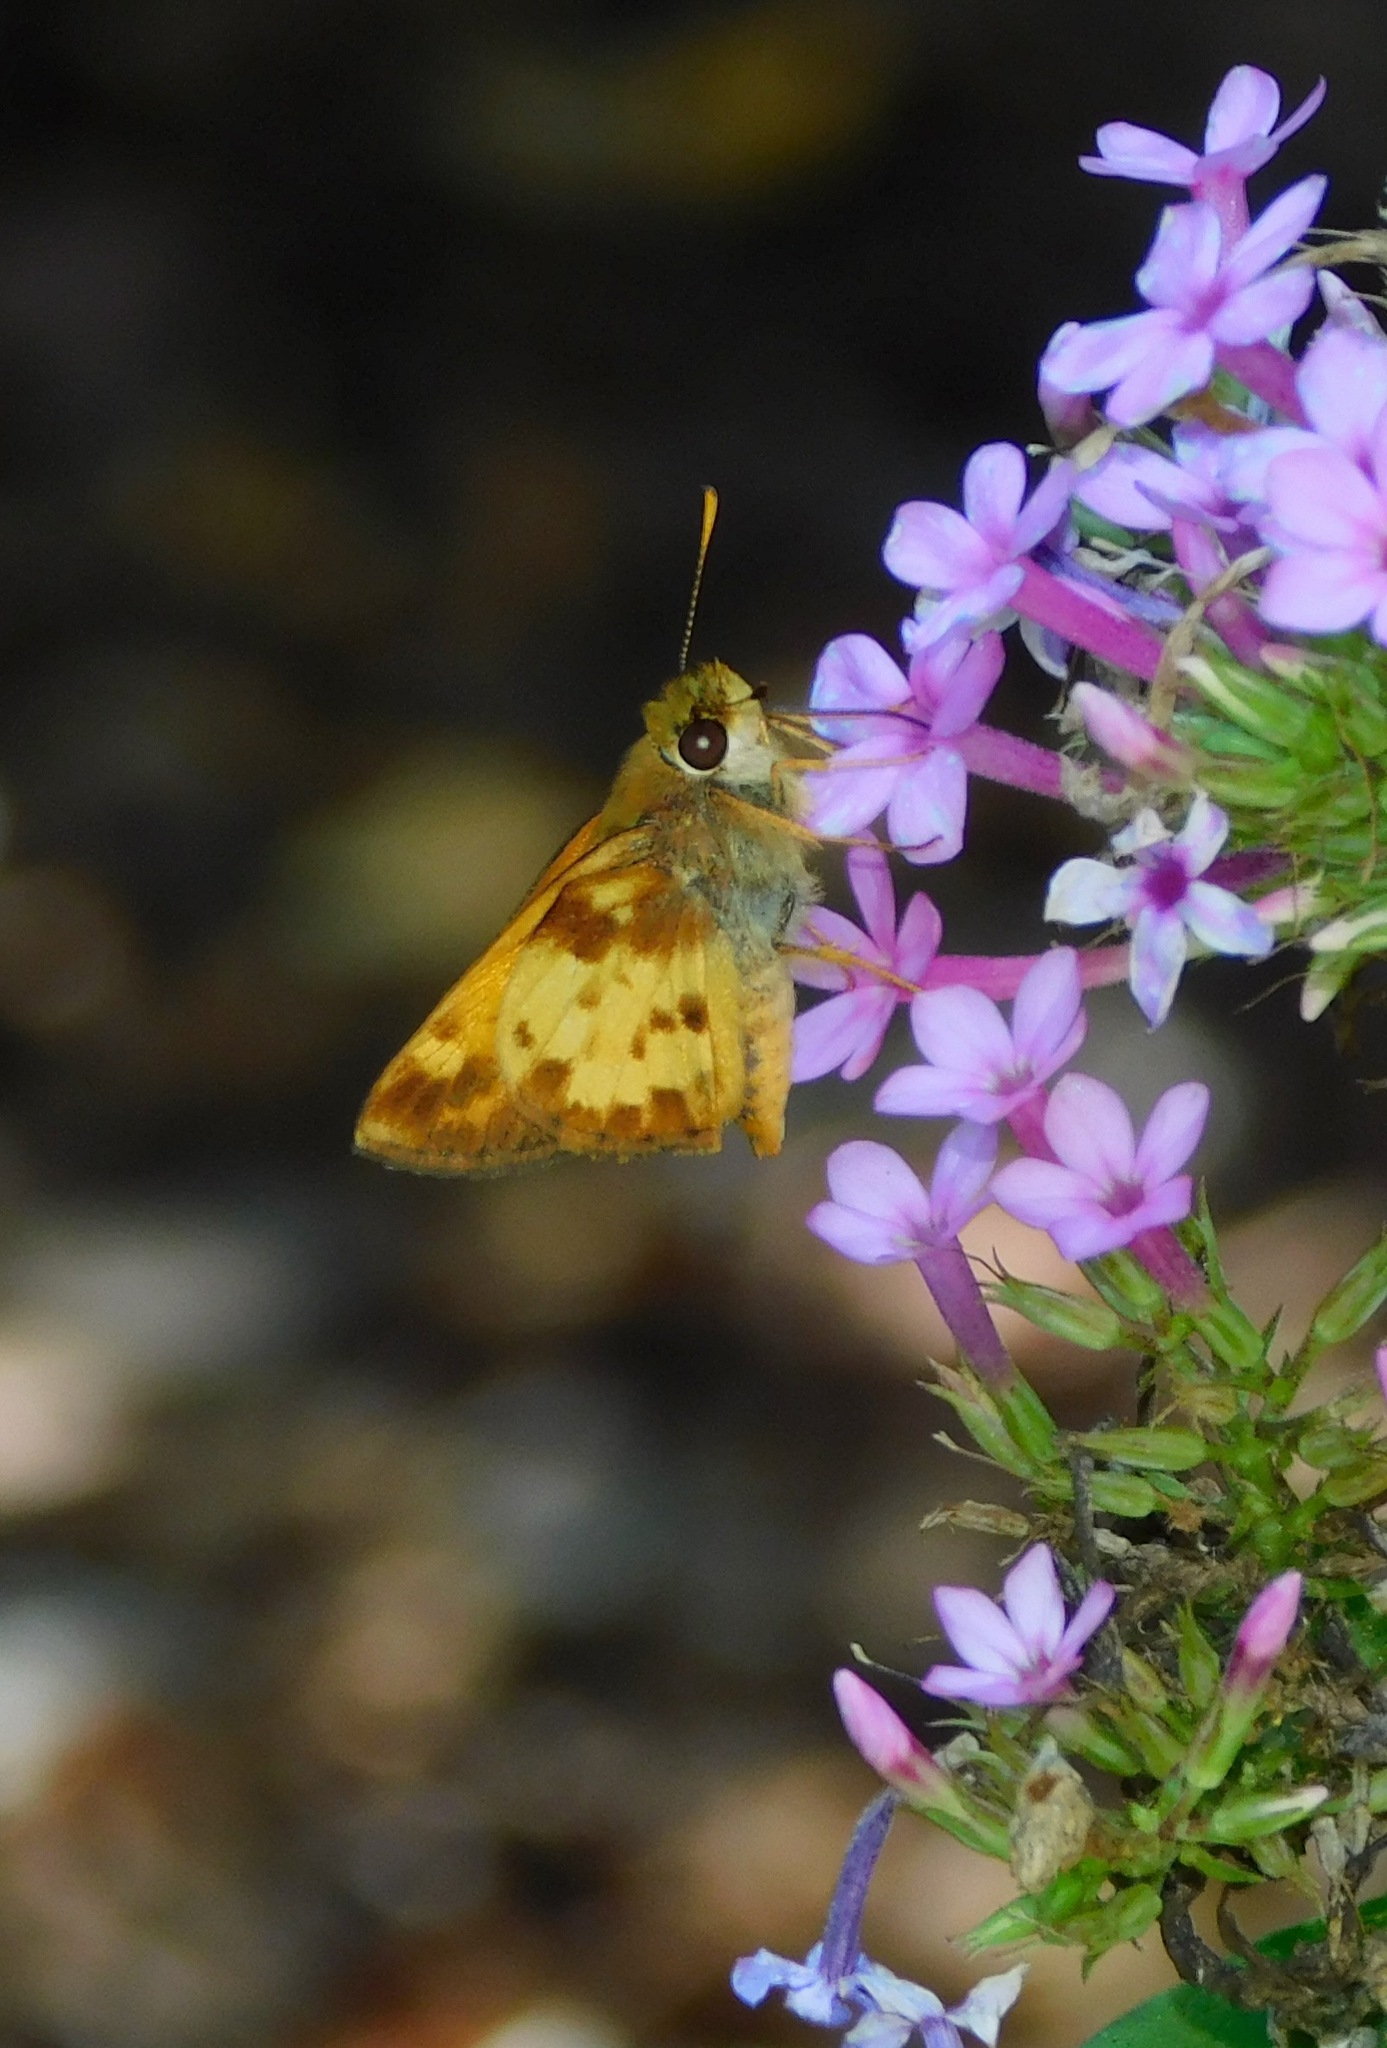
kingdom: Animalia
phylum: Arthropoda
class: Insecta
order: Lepidoptera
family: Hesperiidae
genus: Lon
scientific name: Lon zabulon
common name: Zabulon skipper
